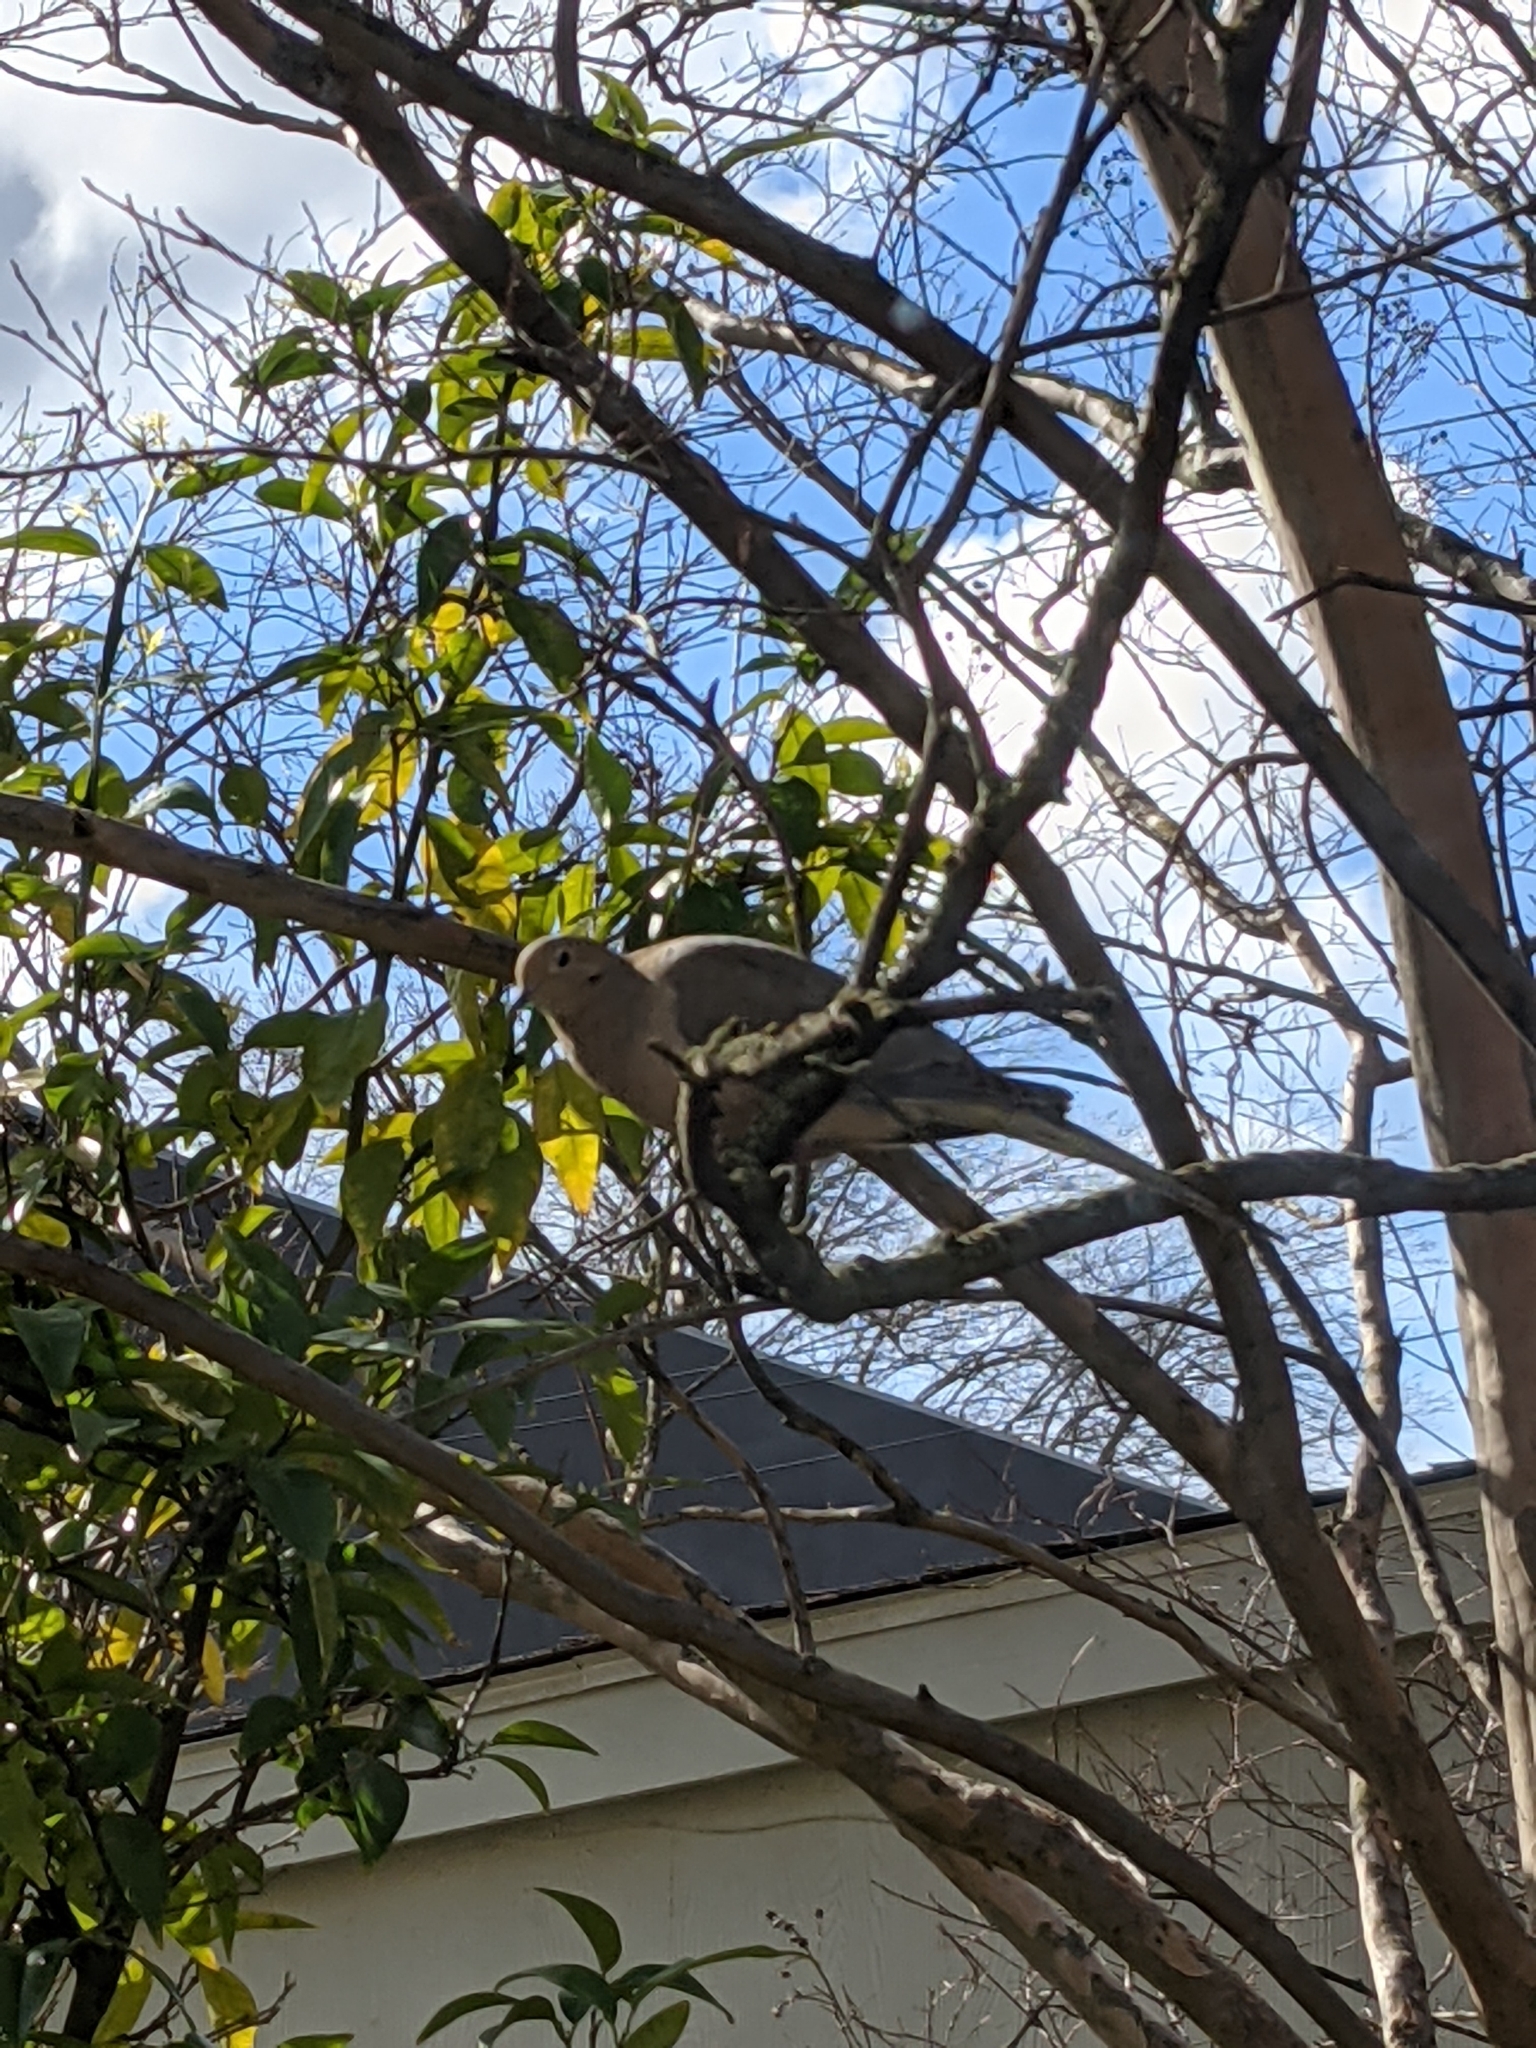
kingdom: Animalia
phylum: Chordata
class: Aves
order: Columbiformes
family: Columbidae
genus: Zenaida
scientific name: Zenaida macroura
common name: Mourning dove
